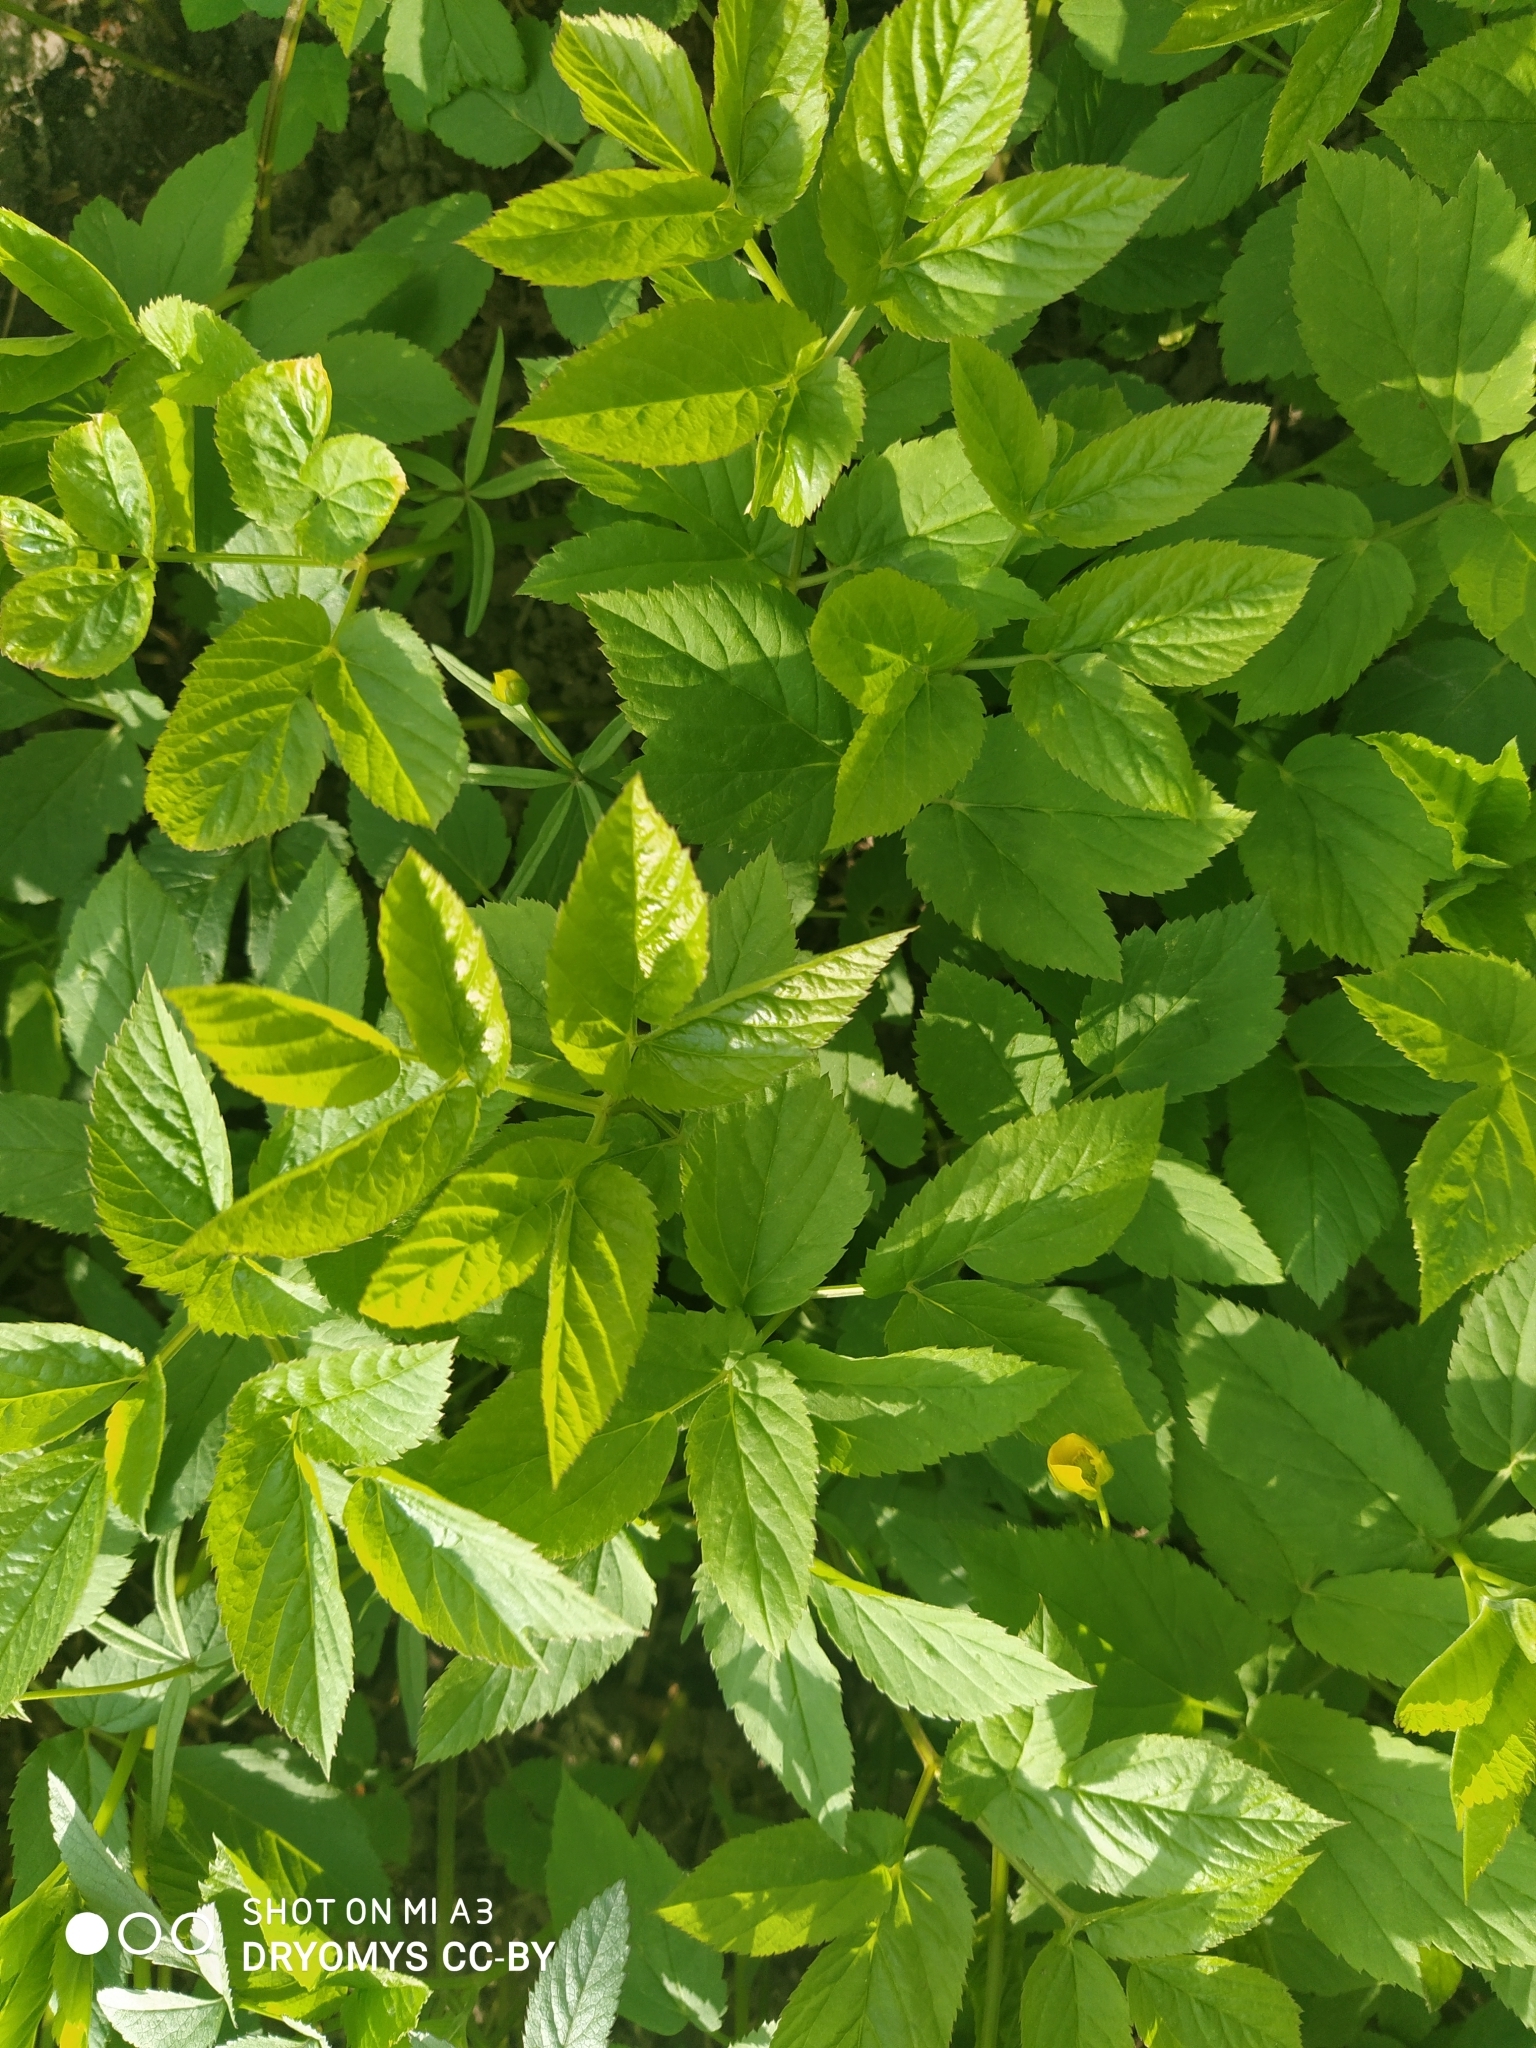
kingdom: Plantae
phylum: Tracheophyta
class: Magnoliopsida
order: Apiales
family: Apiaceae
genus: Aegopodium
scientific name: Aegopodium podagraria
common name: Ground-elder
